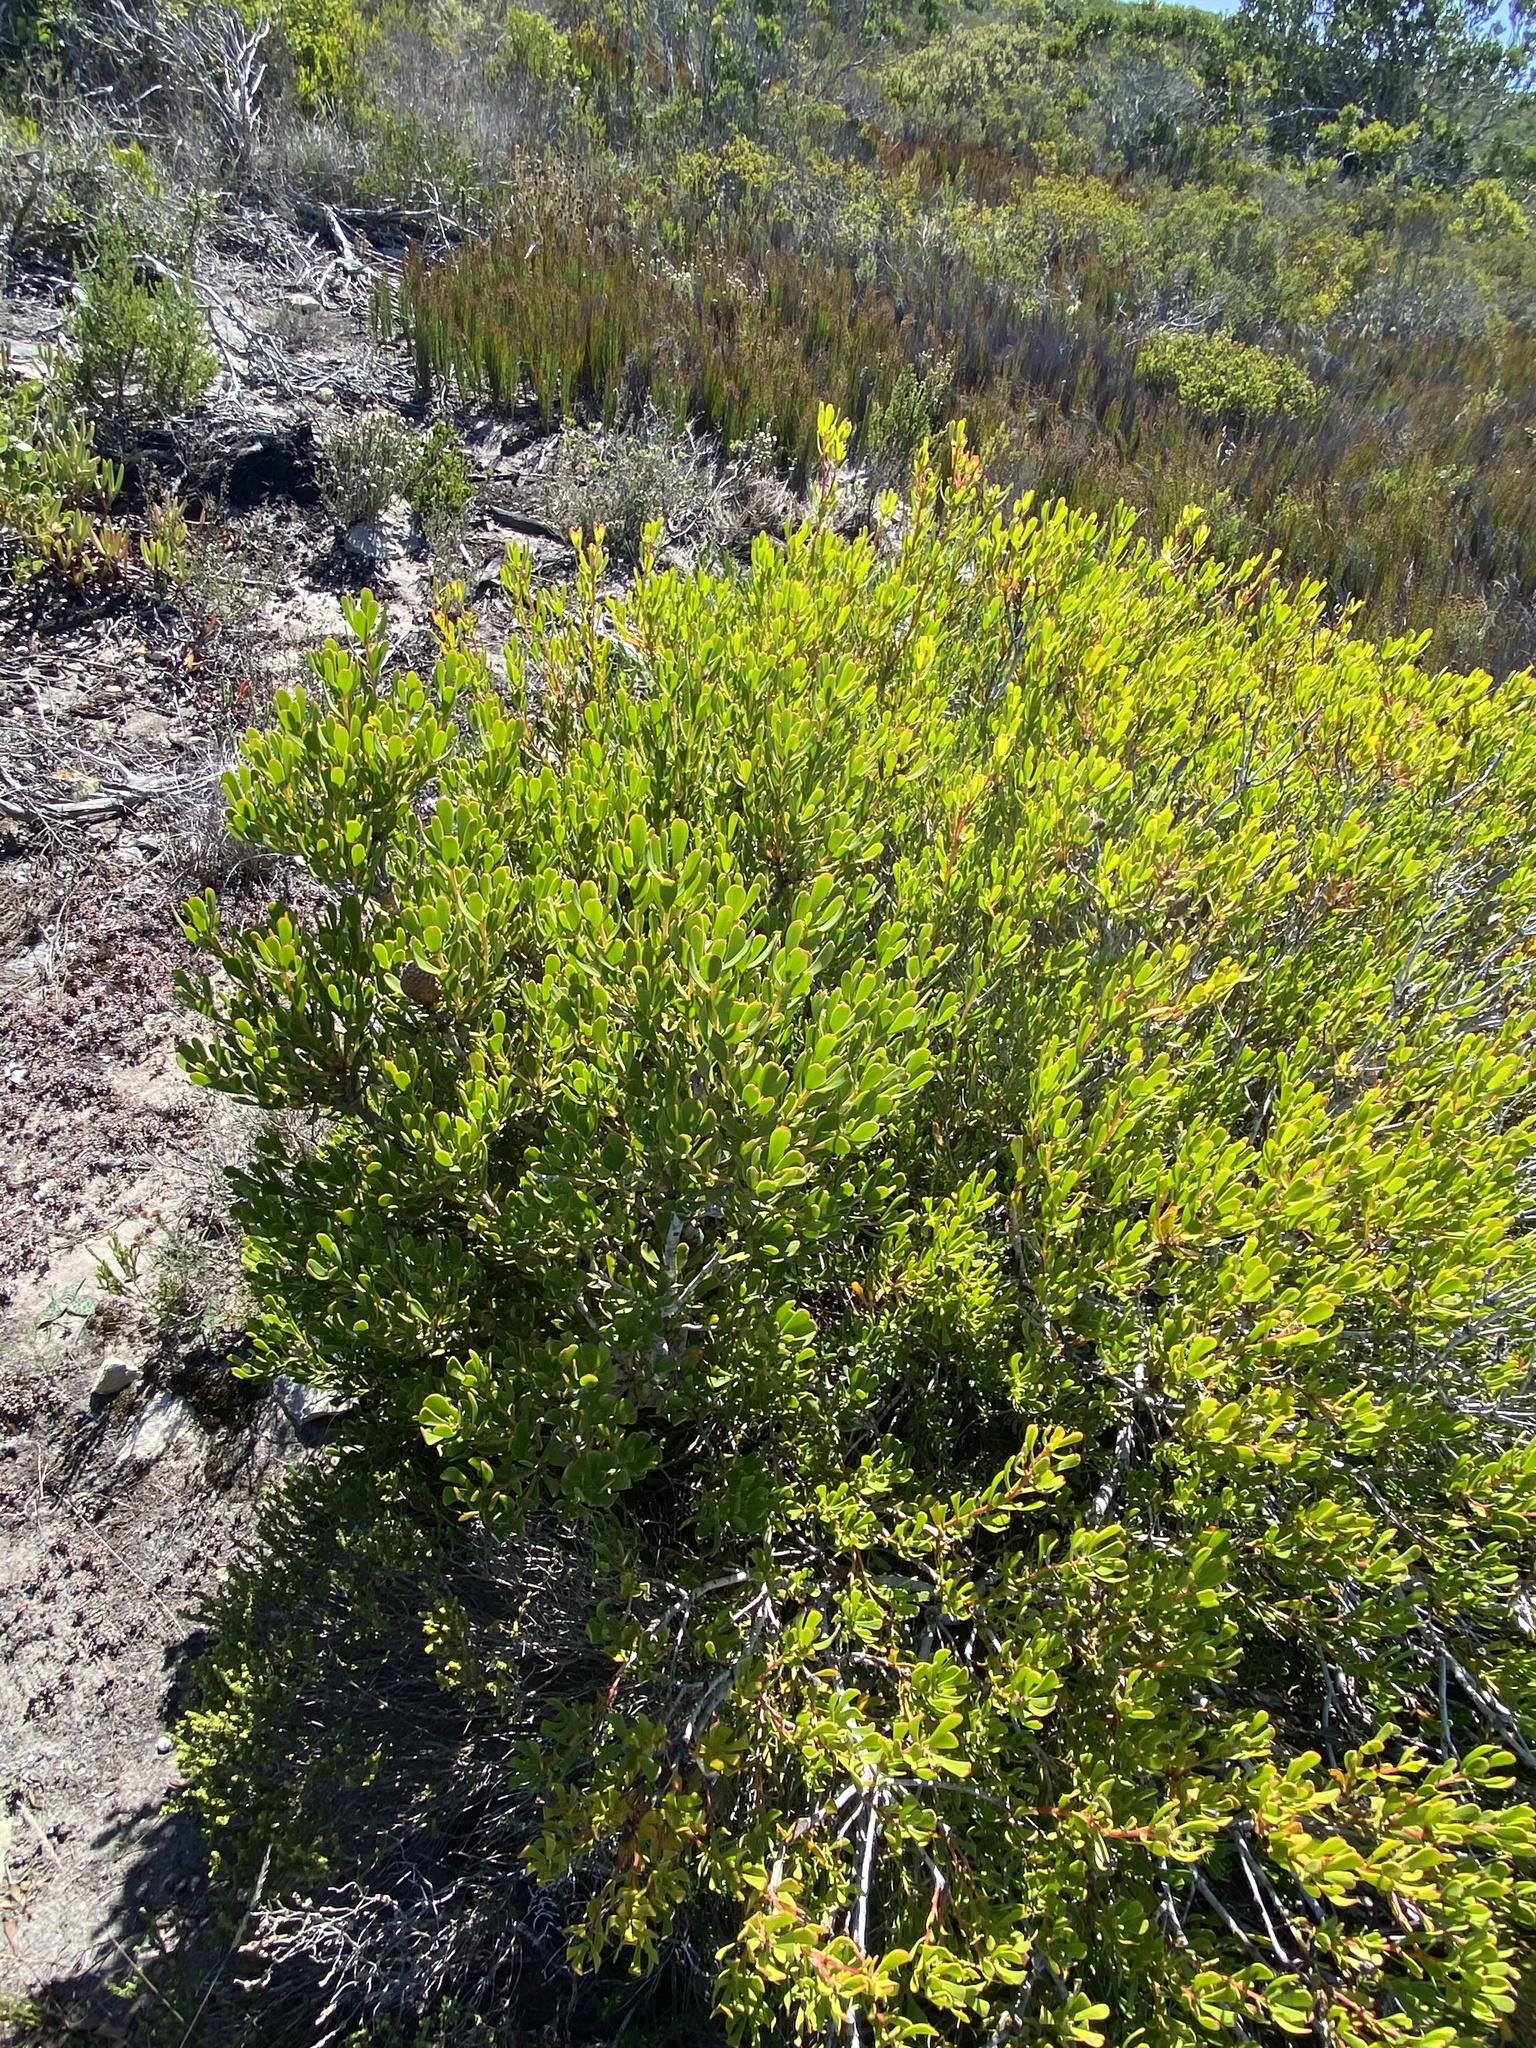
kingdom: Plantae
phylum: Tracheophyta
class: Magnoliopsida
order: Proteales
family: Proteaceae
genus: Leucadendron
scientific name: Leucadendron muirii
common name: Silver-ball conebush
